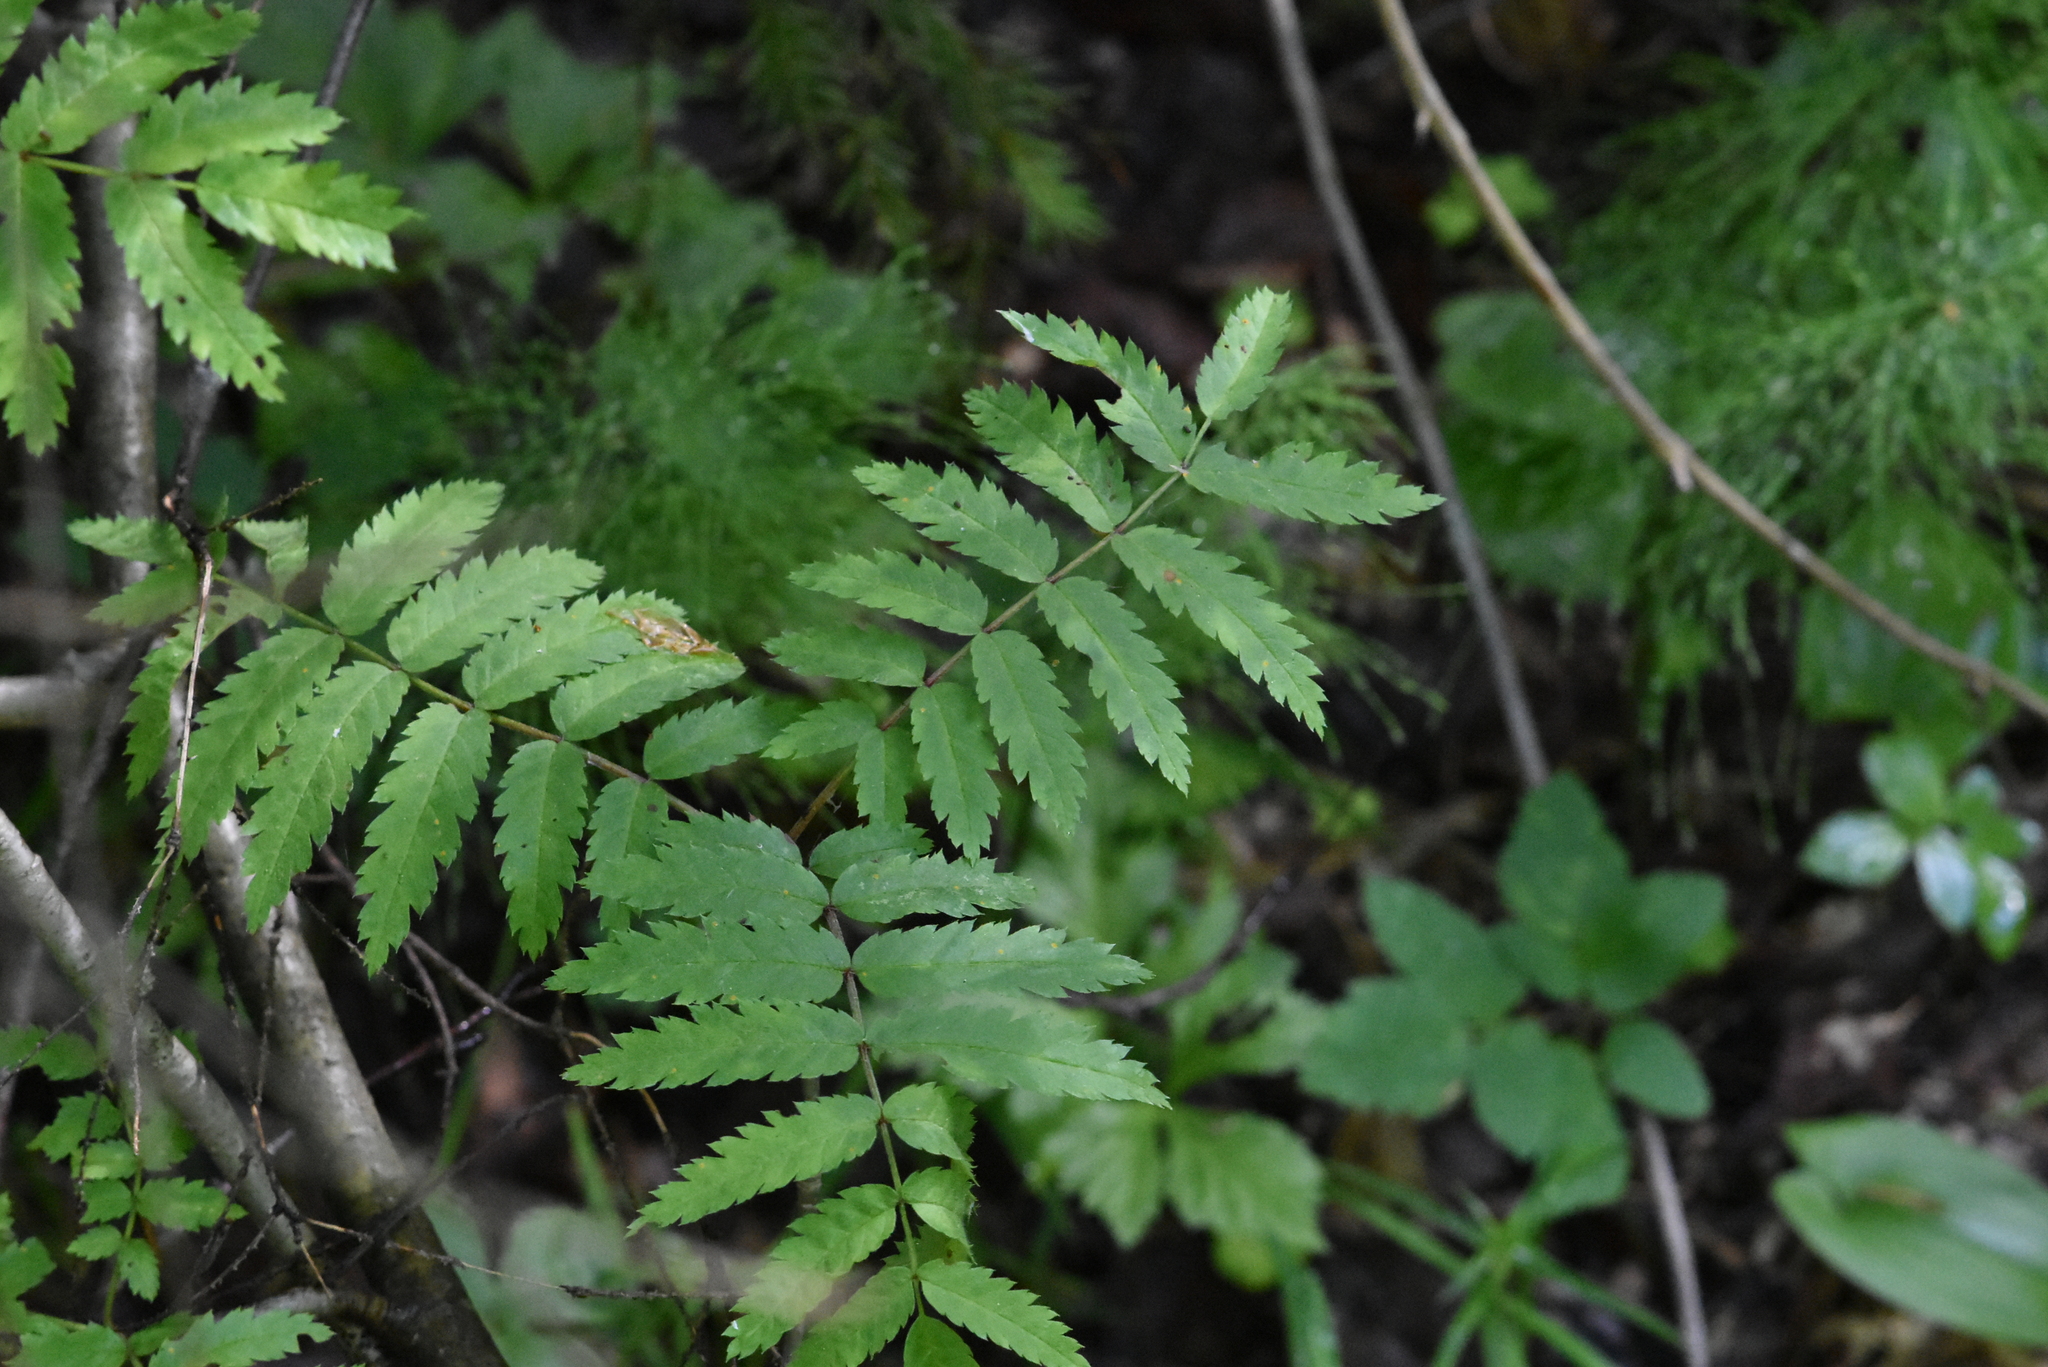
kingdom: Plantae
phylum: Tracheophyta
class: Magnoliopsida
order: Rosales
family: Rosaceae
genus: Sorbus
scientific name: Sorbus aucuparia
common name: Rowan
